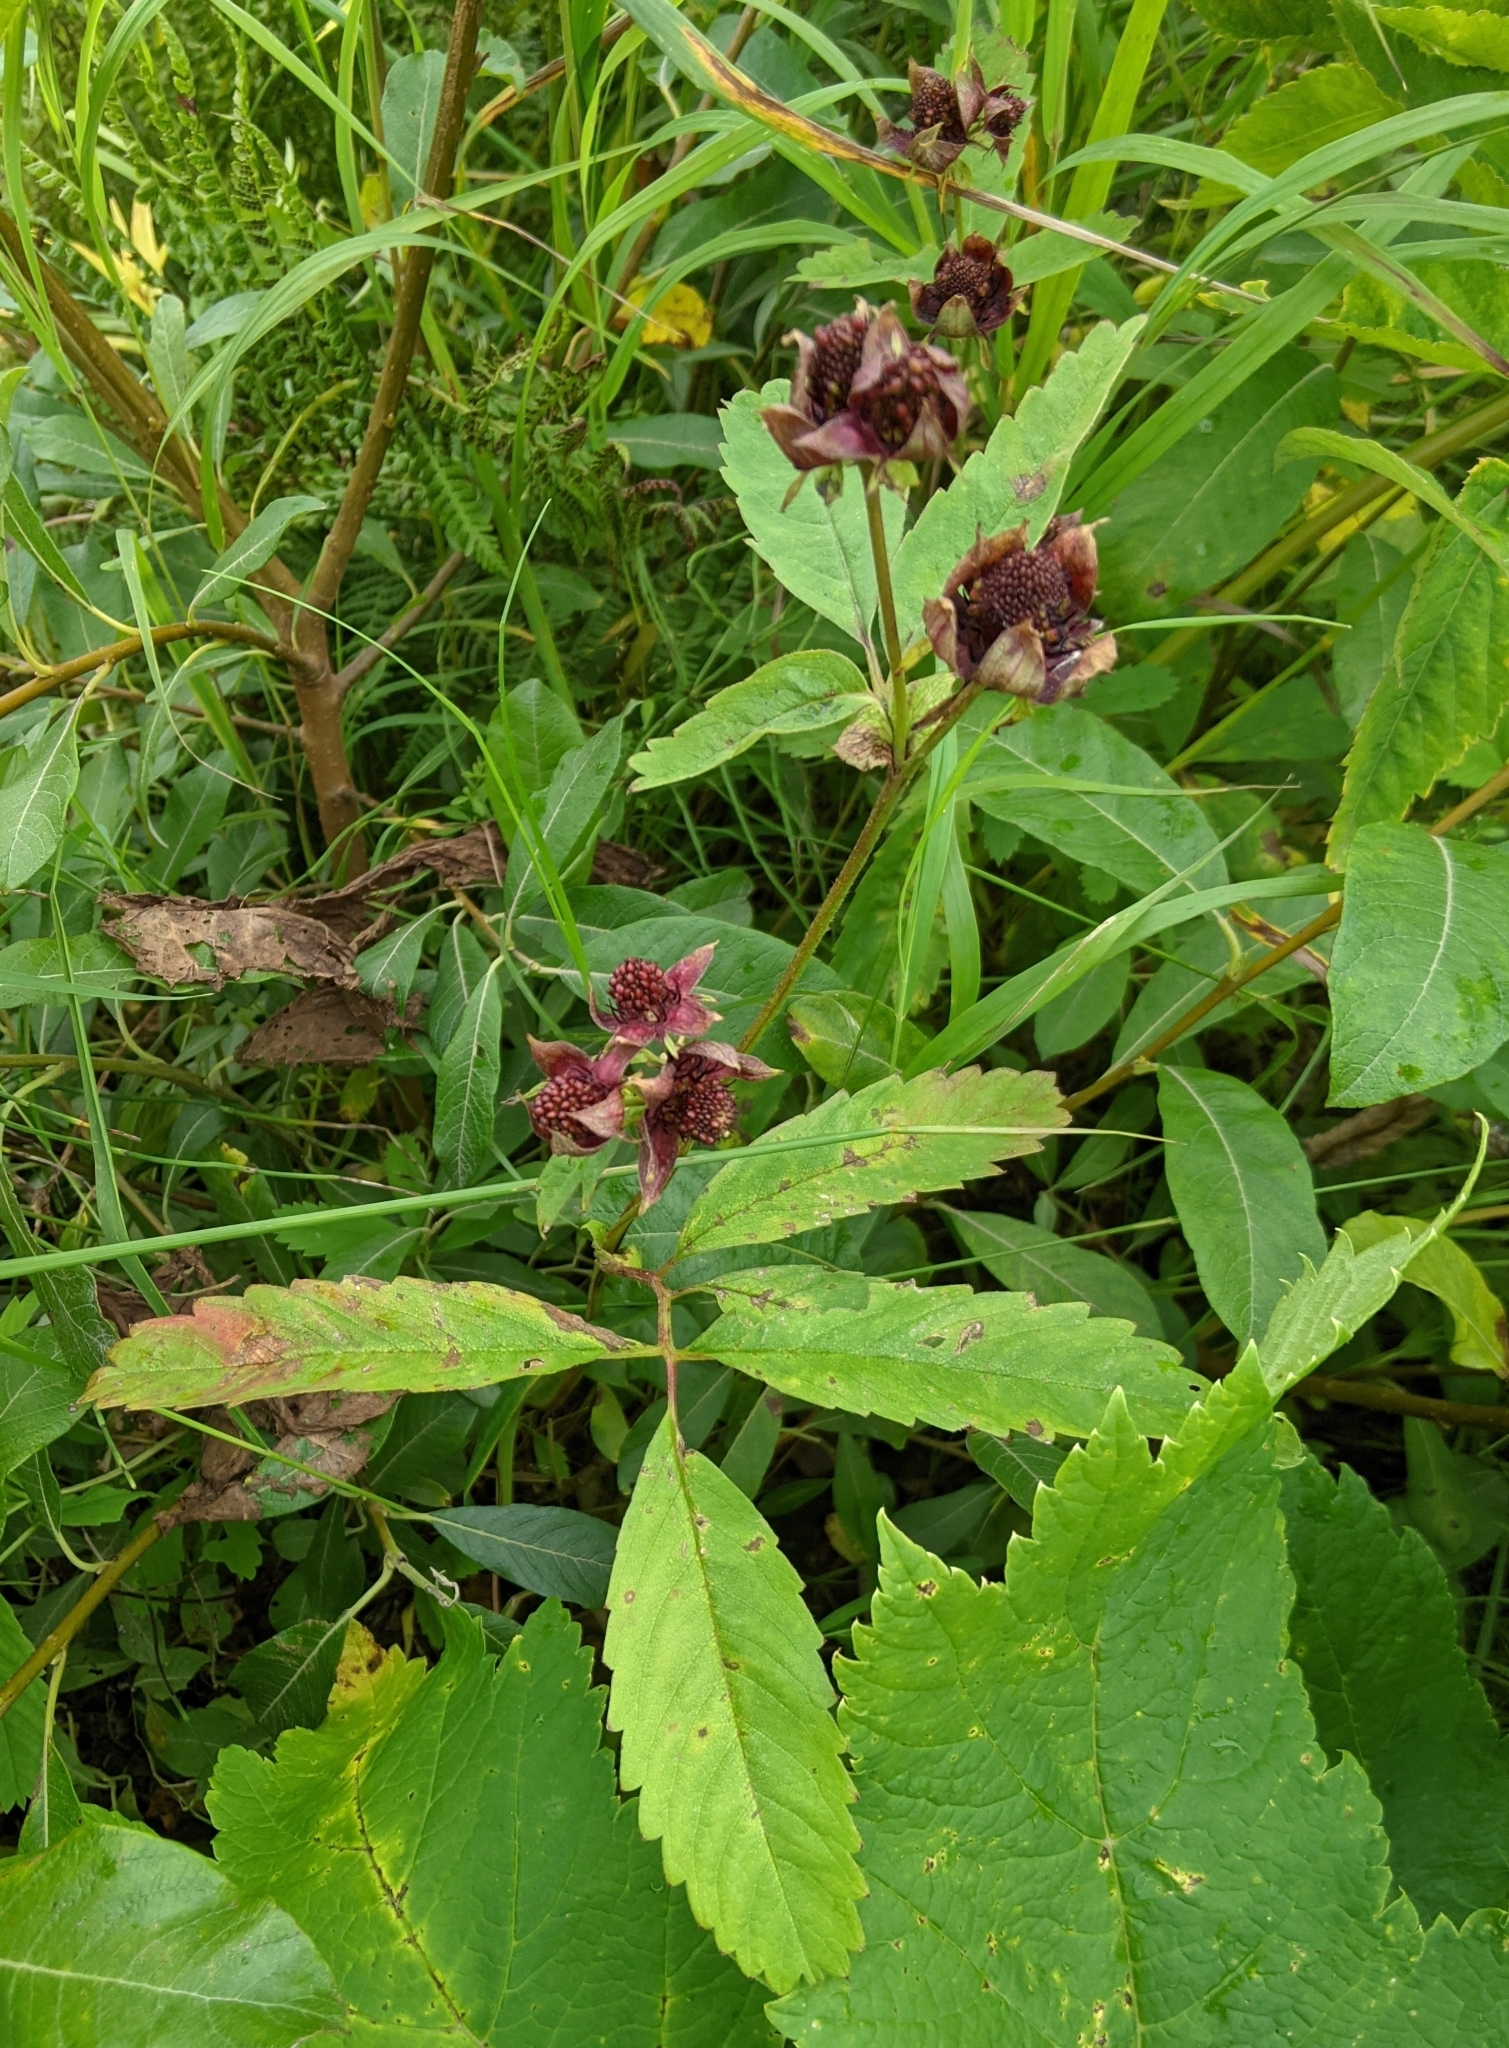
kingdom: Plantae
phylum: Tracheophyta
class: Magnoliopsida
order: Rosales
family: Rosaceae
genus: Comarum
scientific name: Comarum palustre
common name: Marsh cinquefoil
